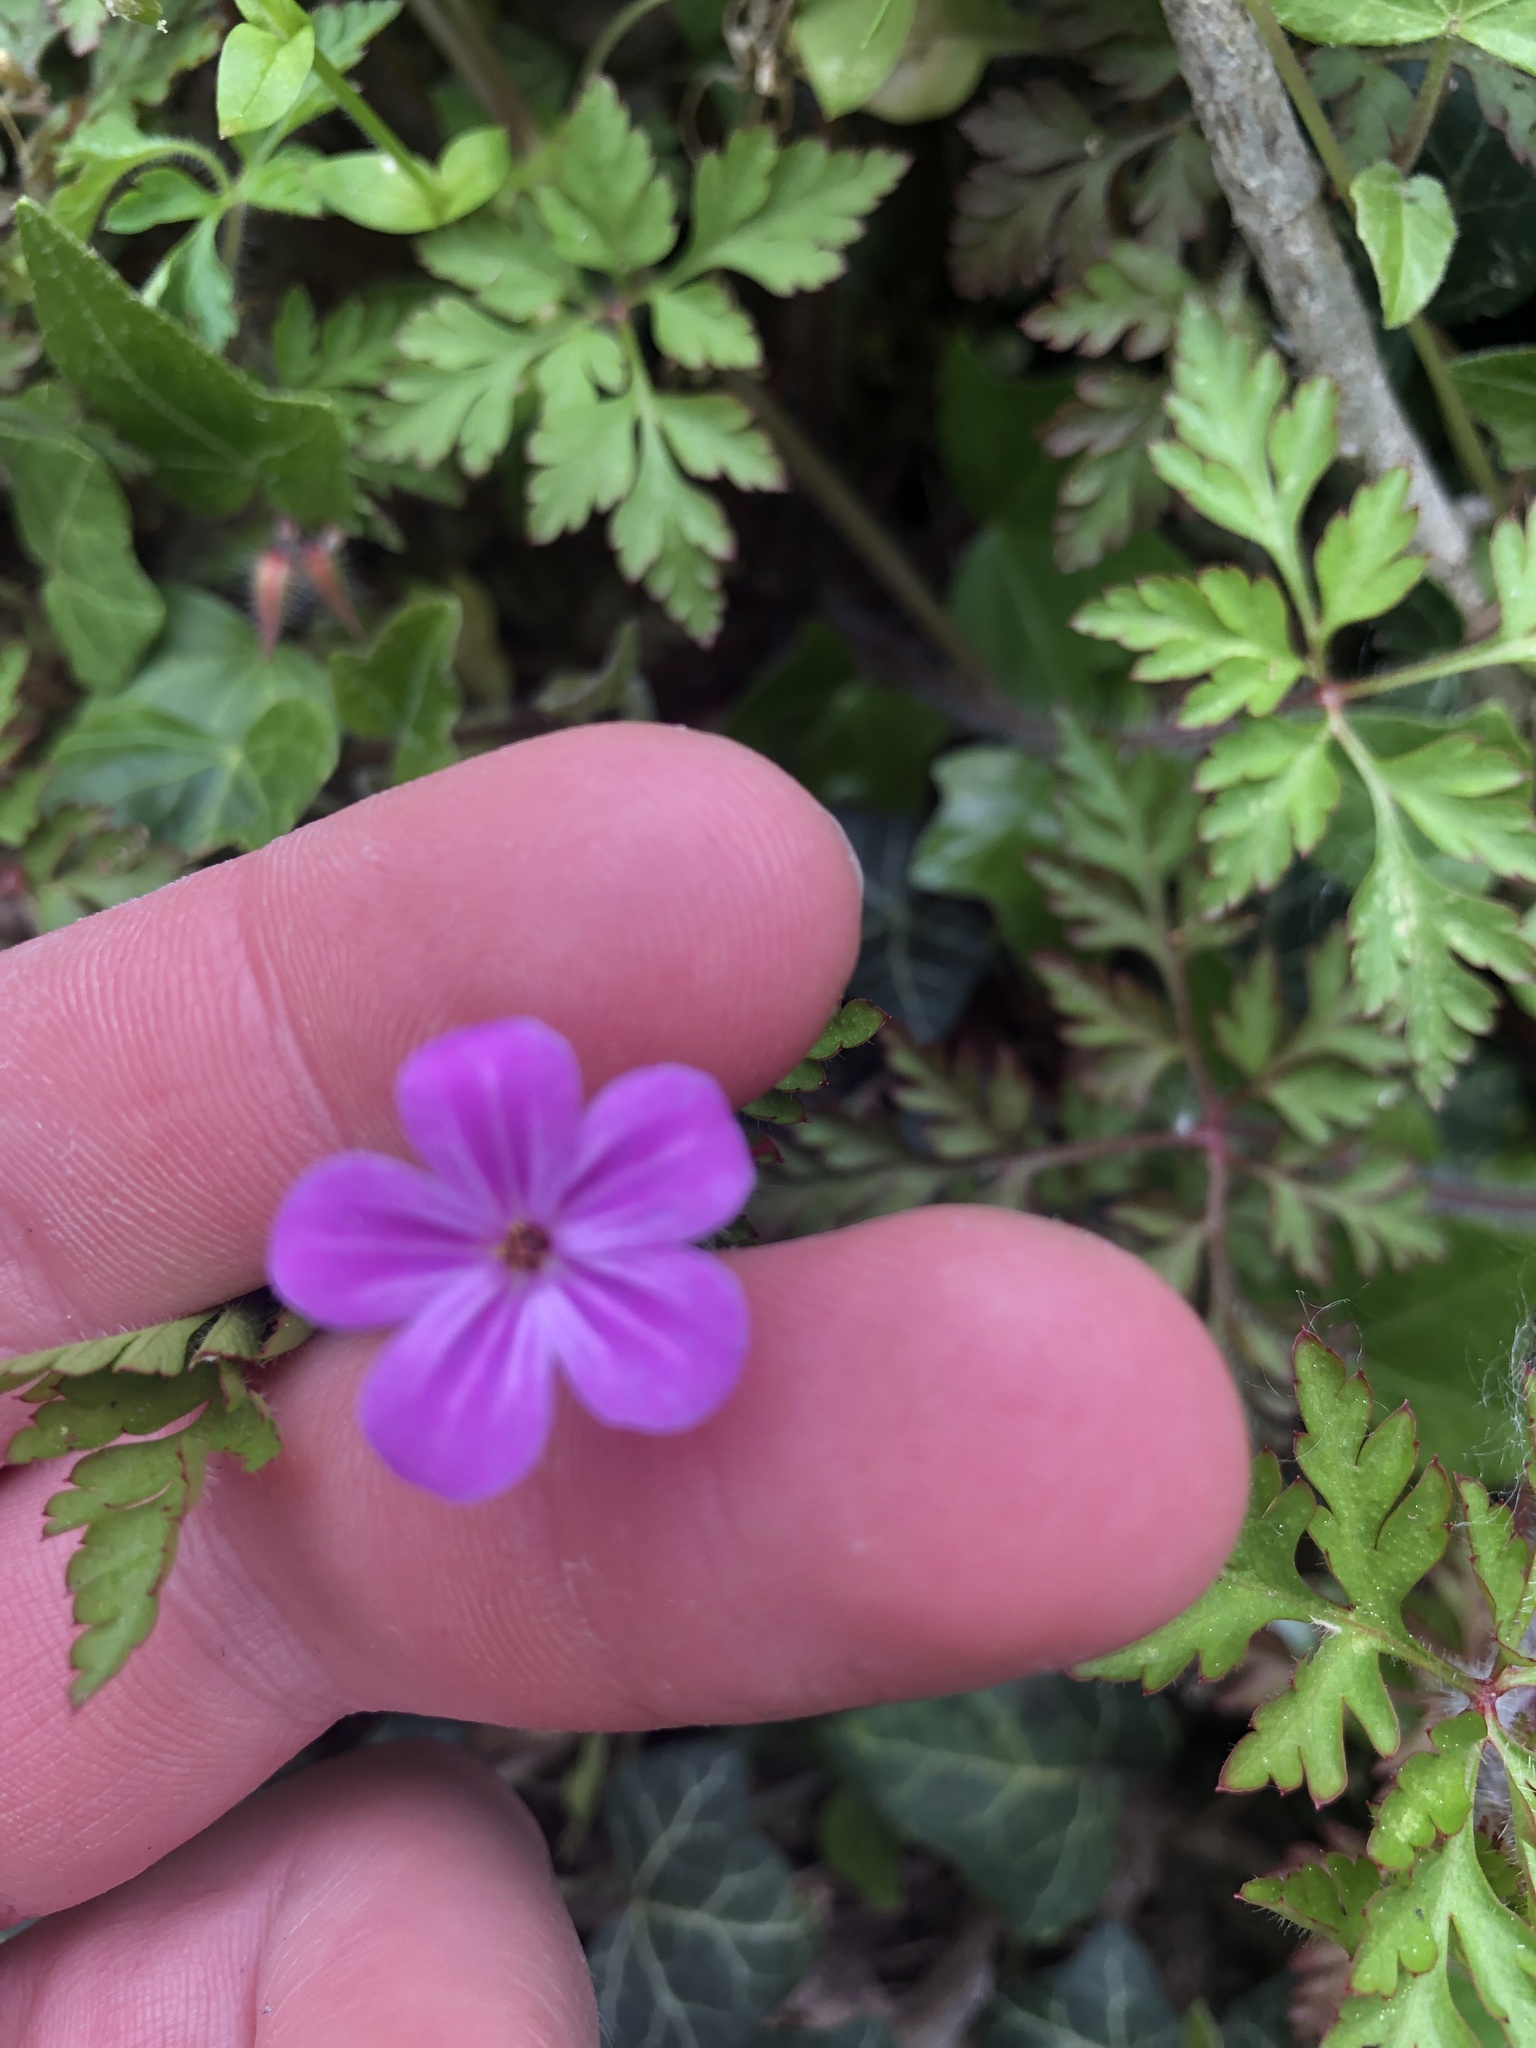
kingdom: Plantae
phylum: Tracheophyta
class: Magnoliopsida
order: Geraniales
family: Geraniaceae
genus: Geranium
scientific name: Geranium robertianum
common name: Herb-robert
